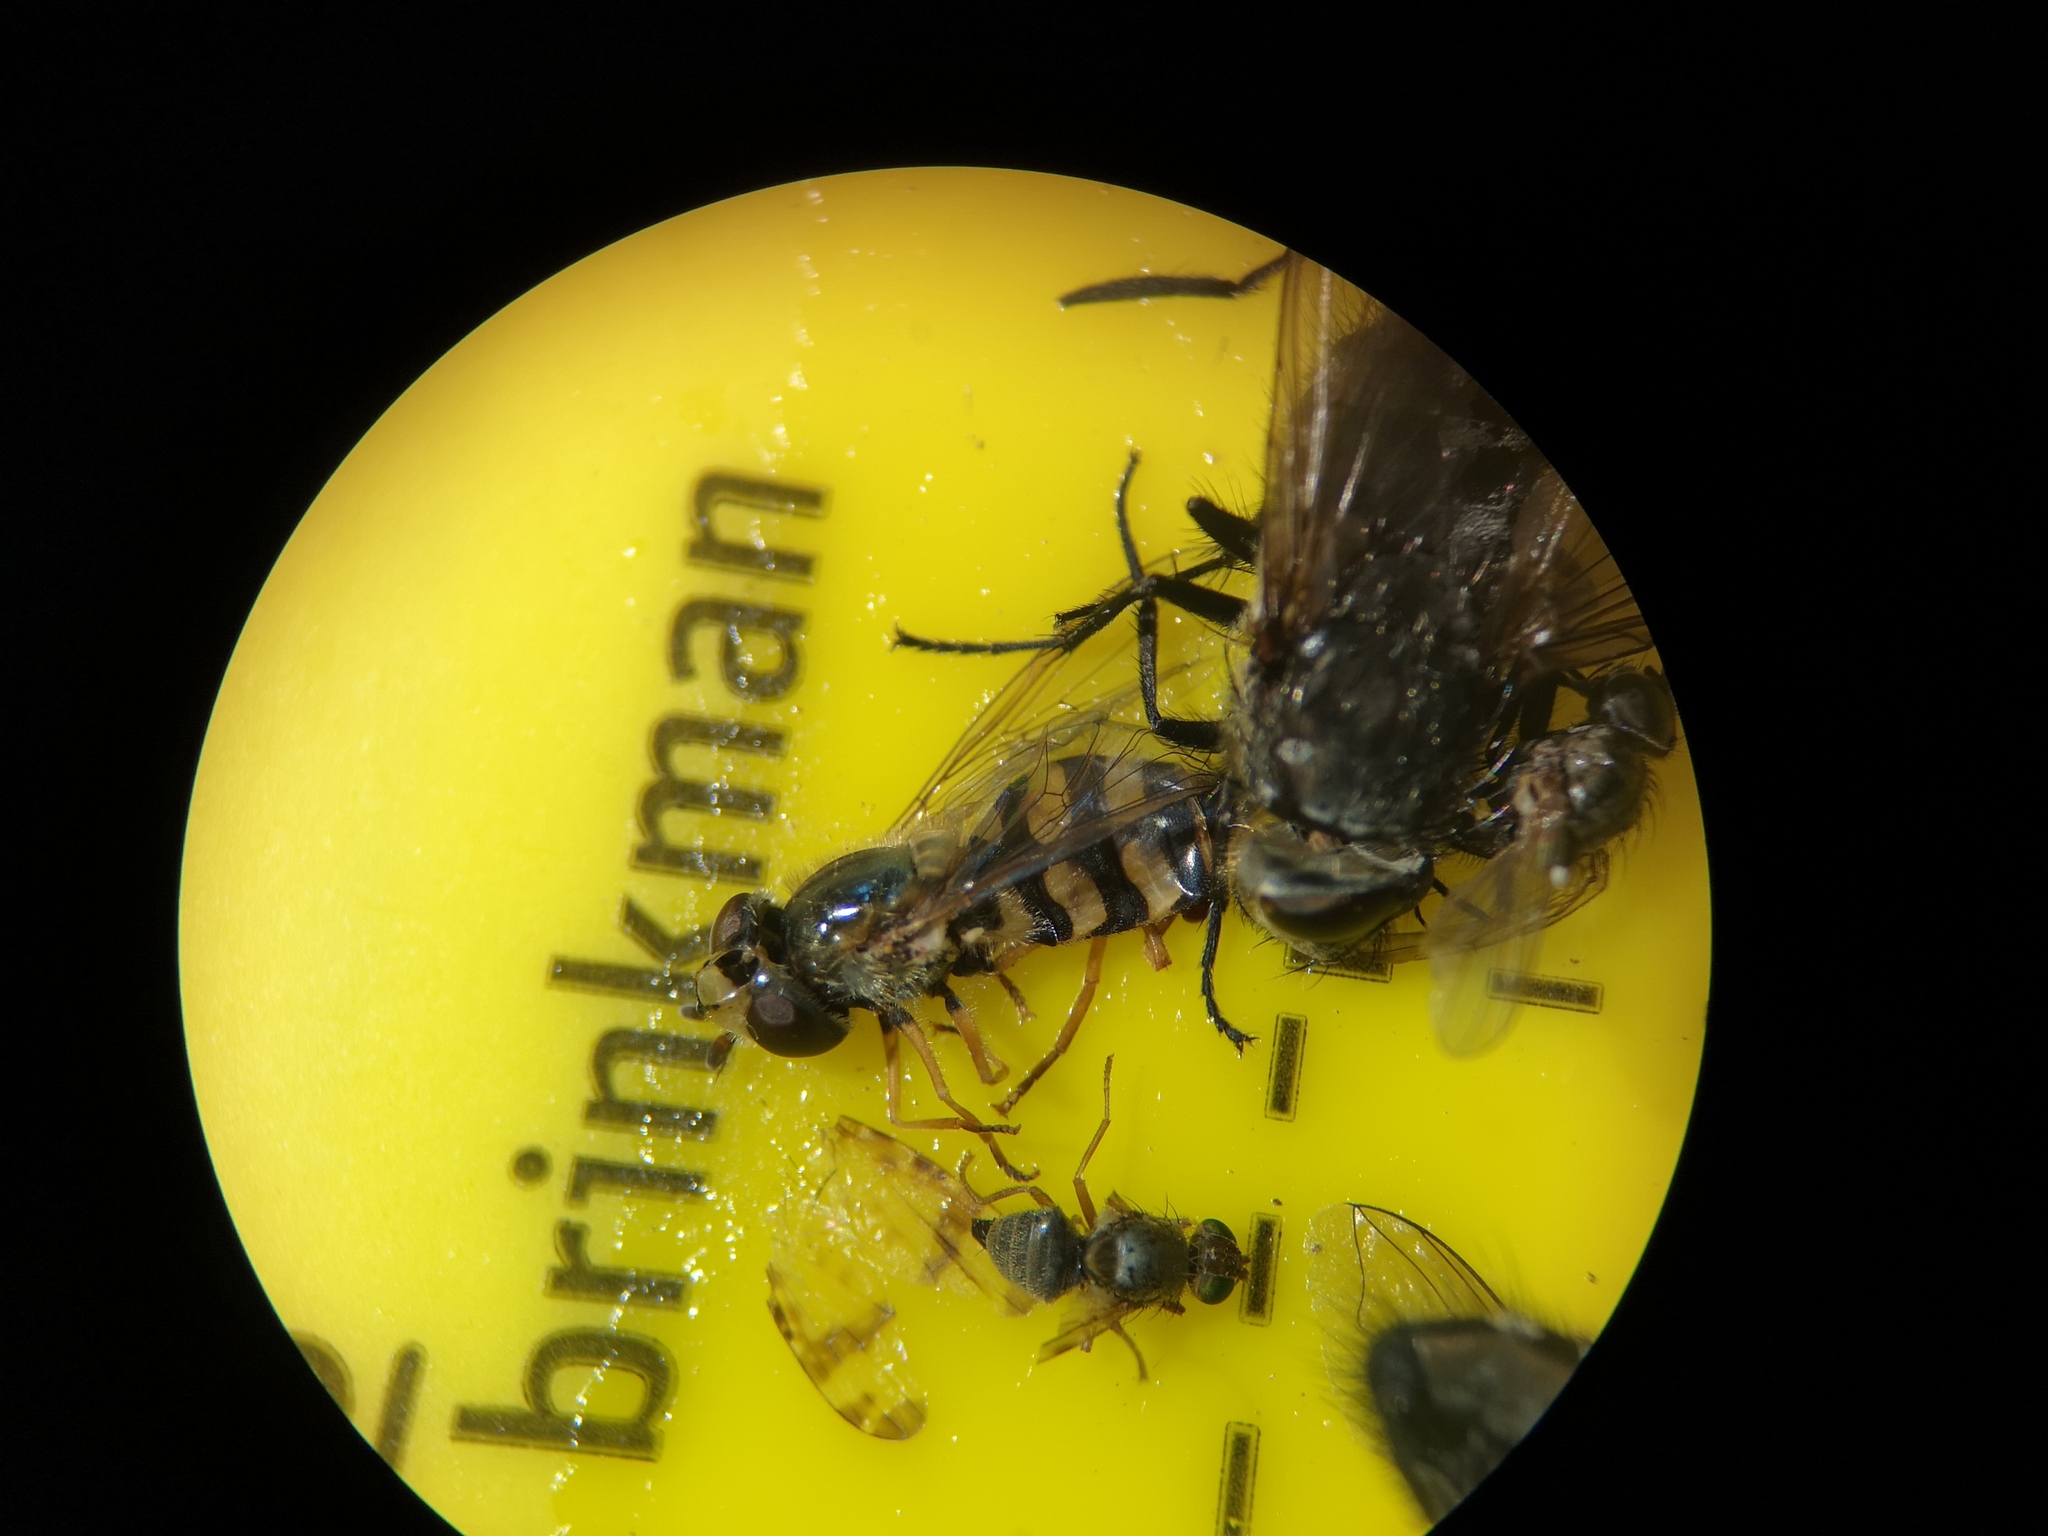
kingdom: Animalia
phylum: Arthropoda
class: Insecta
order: Diptera
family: Syrphidae
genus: Eupeodes
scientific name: Eupeodes corollae
